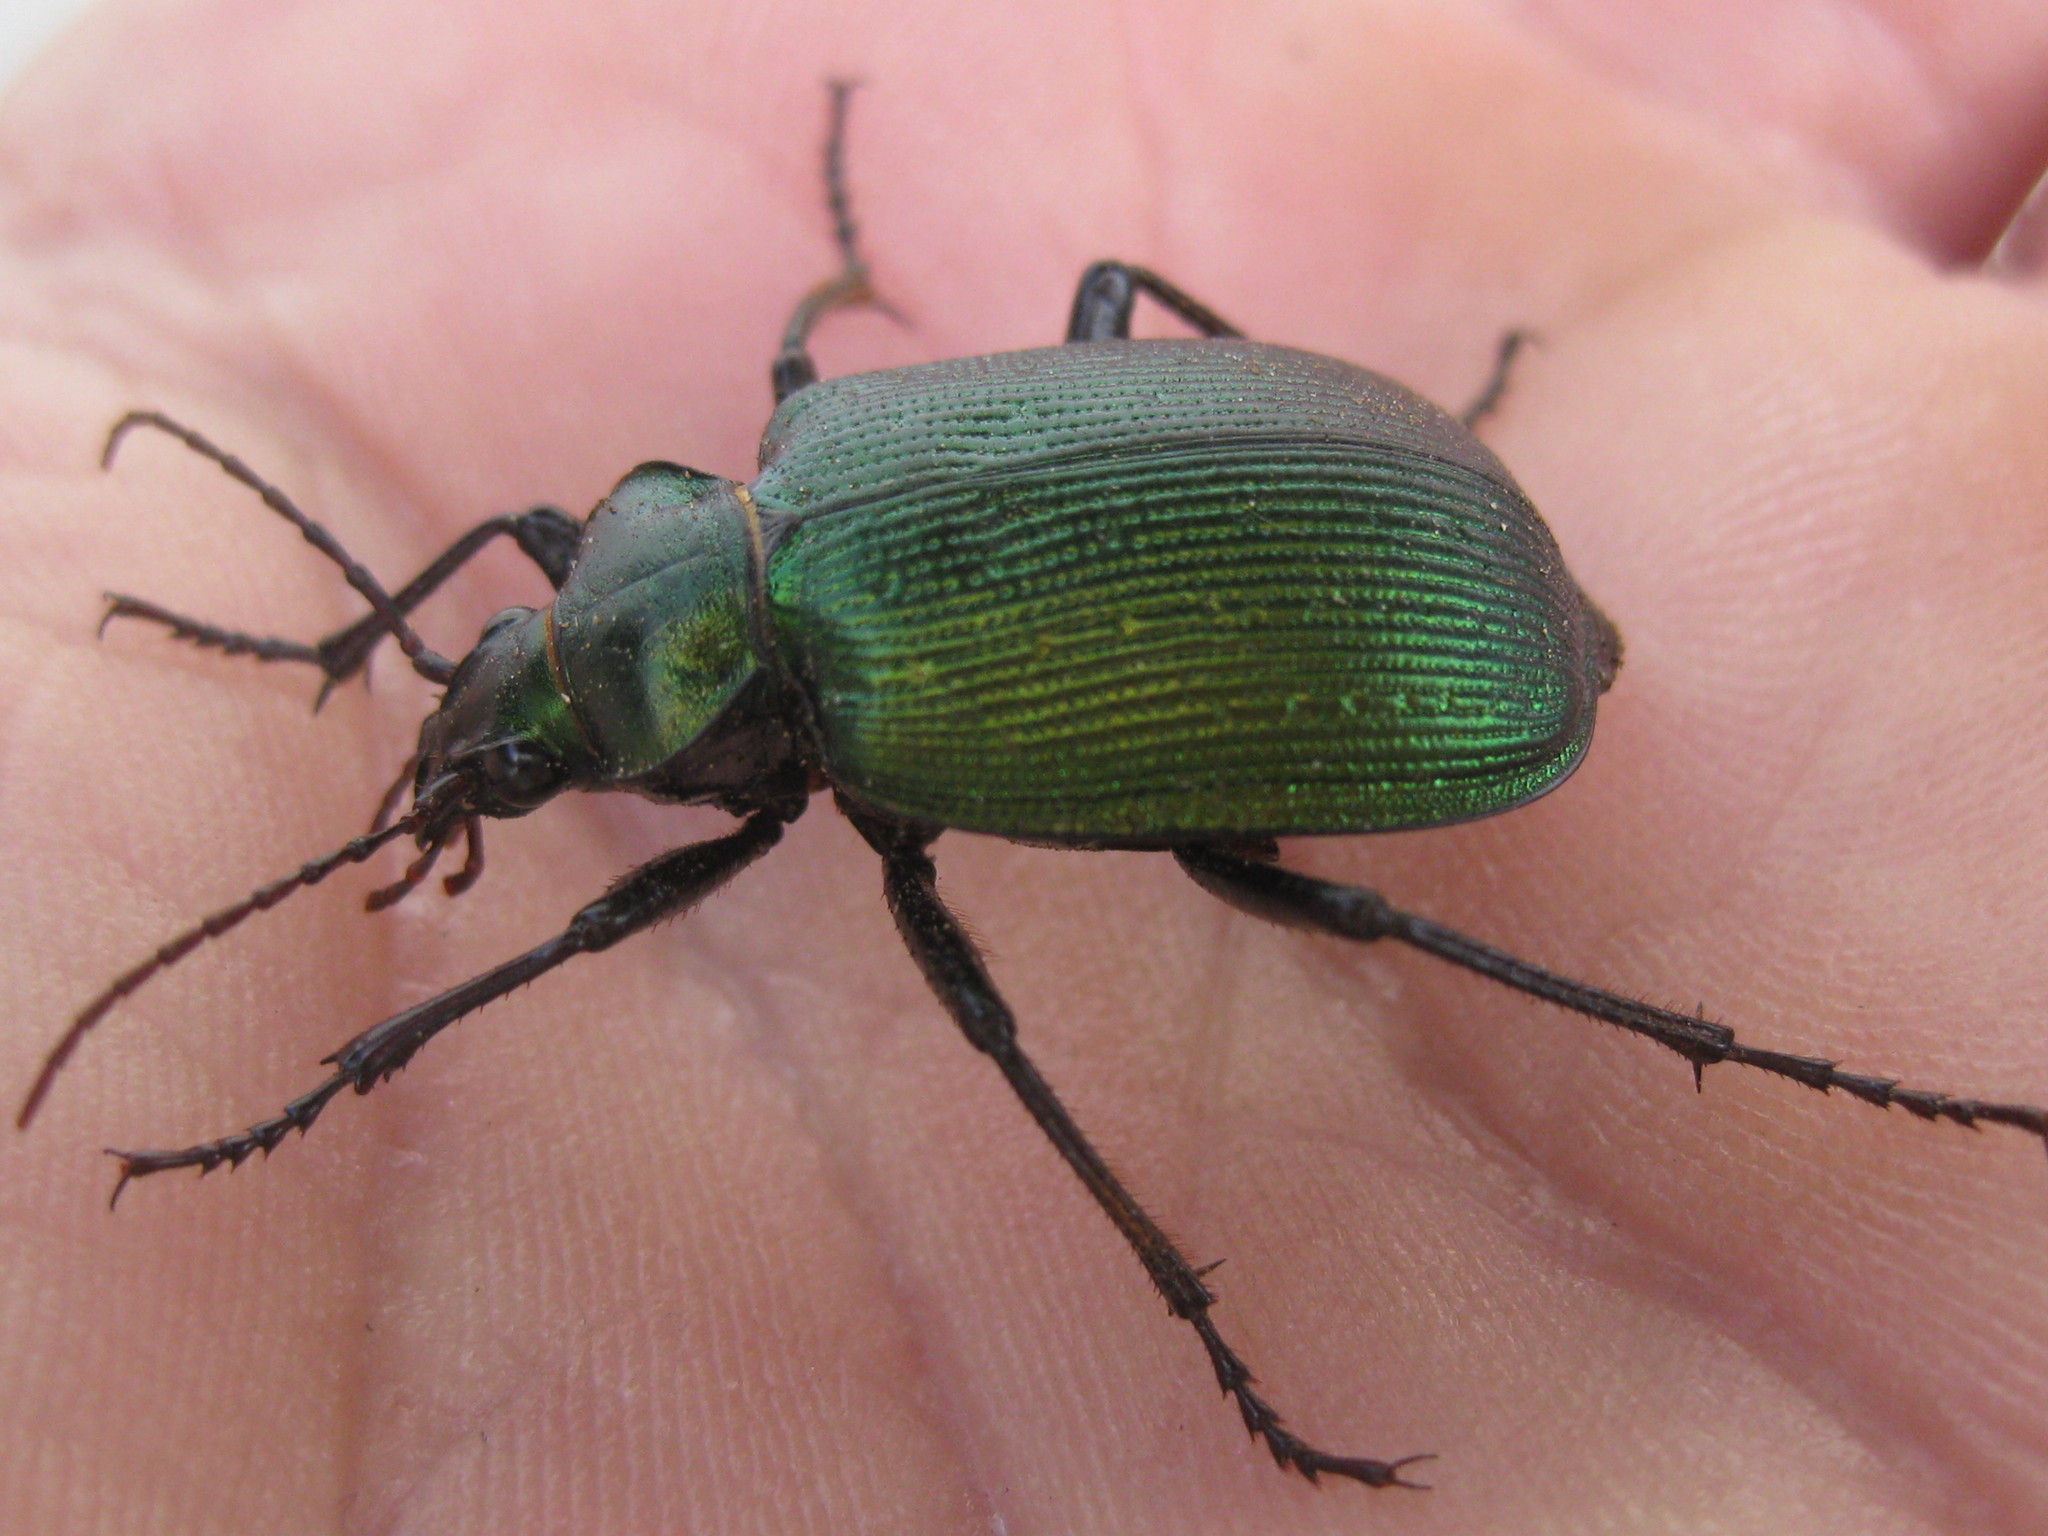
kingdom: Animalia
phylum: Arthropoda
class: Insecta
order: Coleoptera
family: Carabidae
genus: Calosoma
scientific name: Calosoma schayeri
